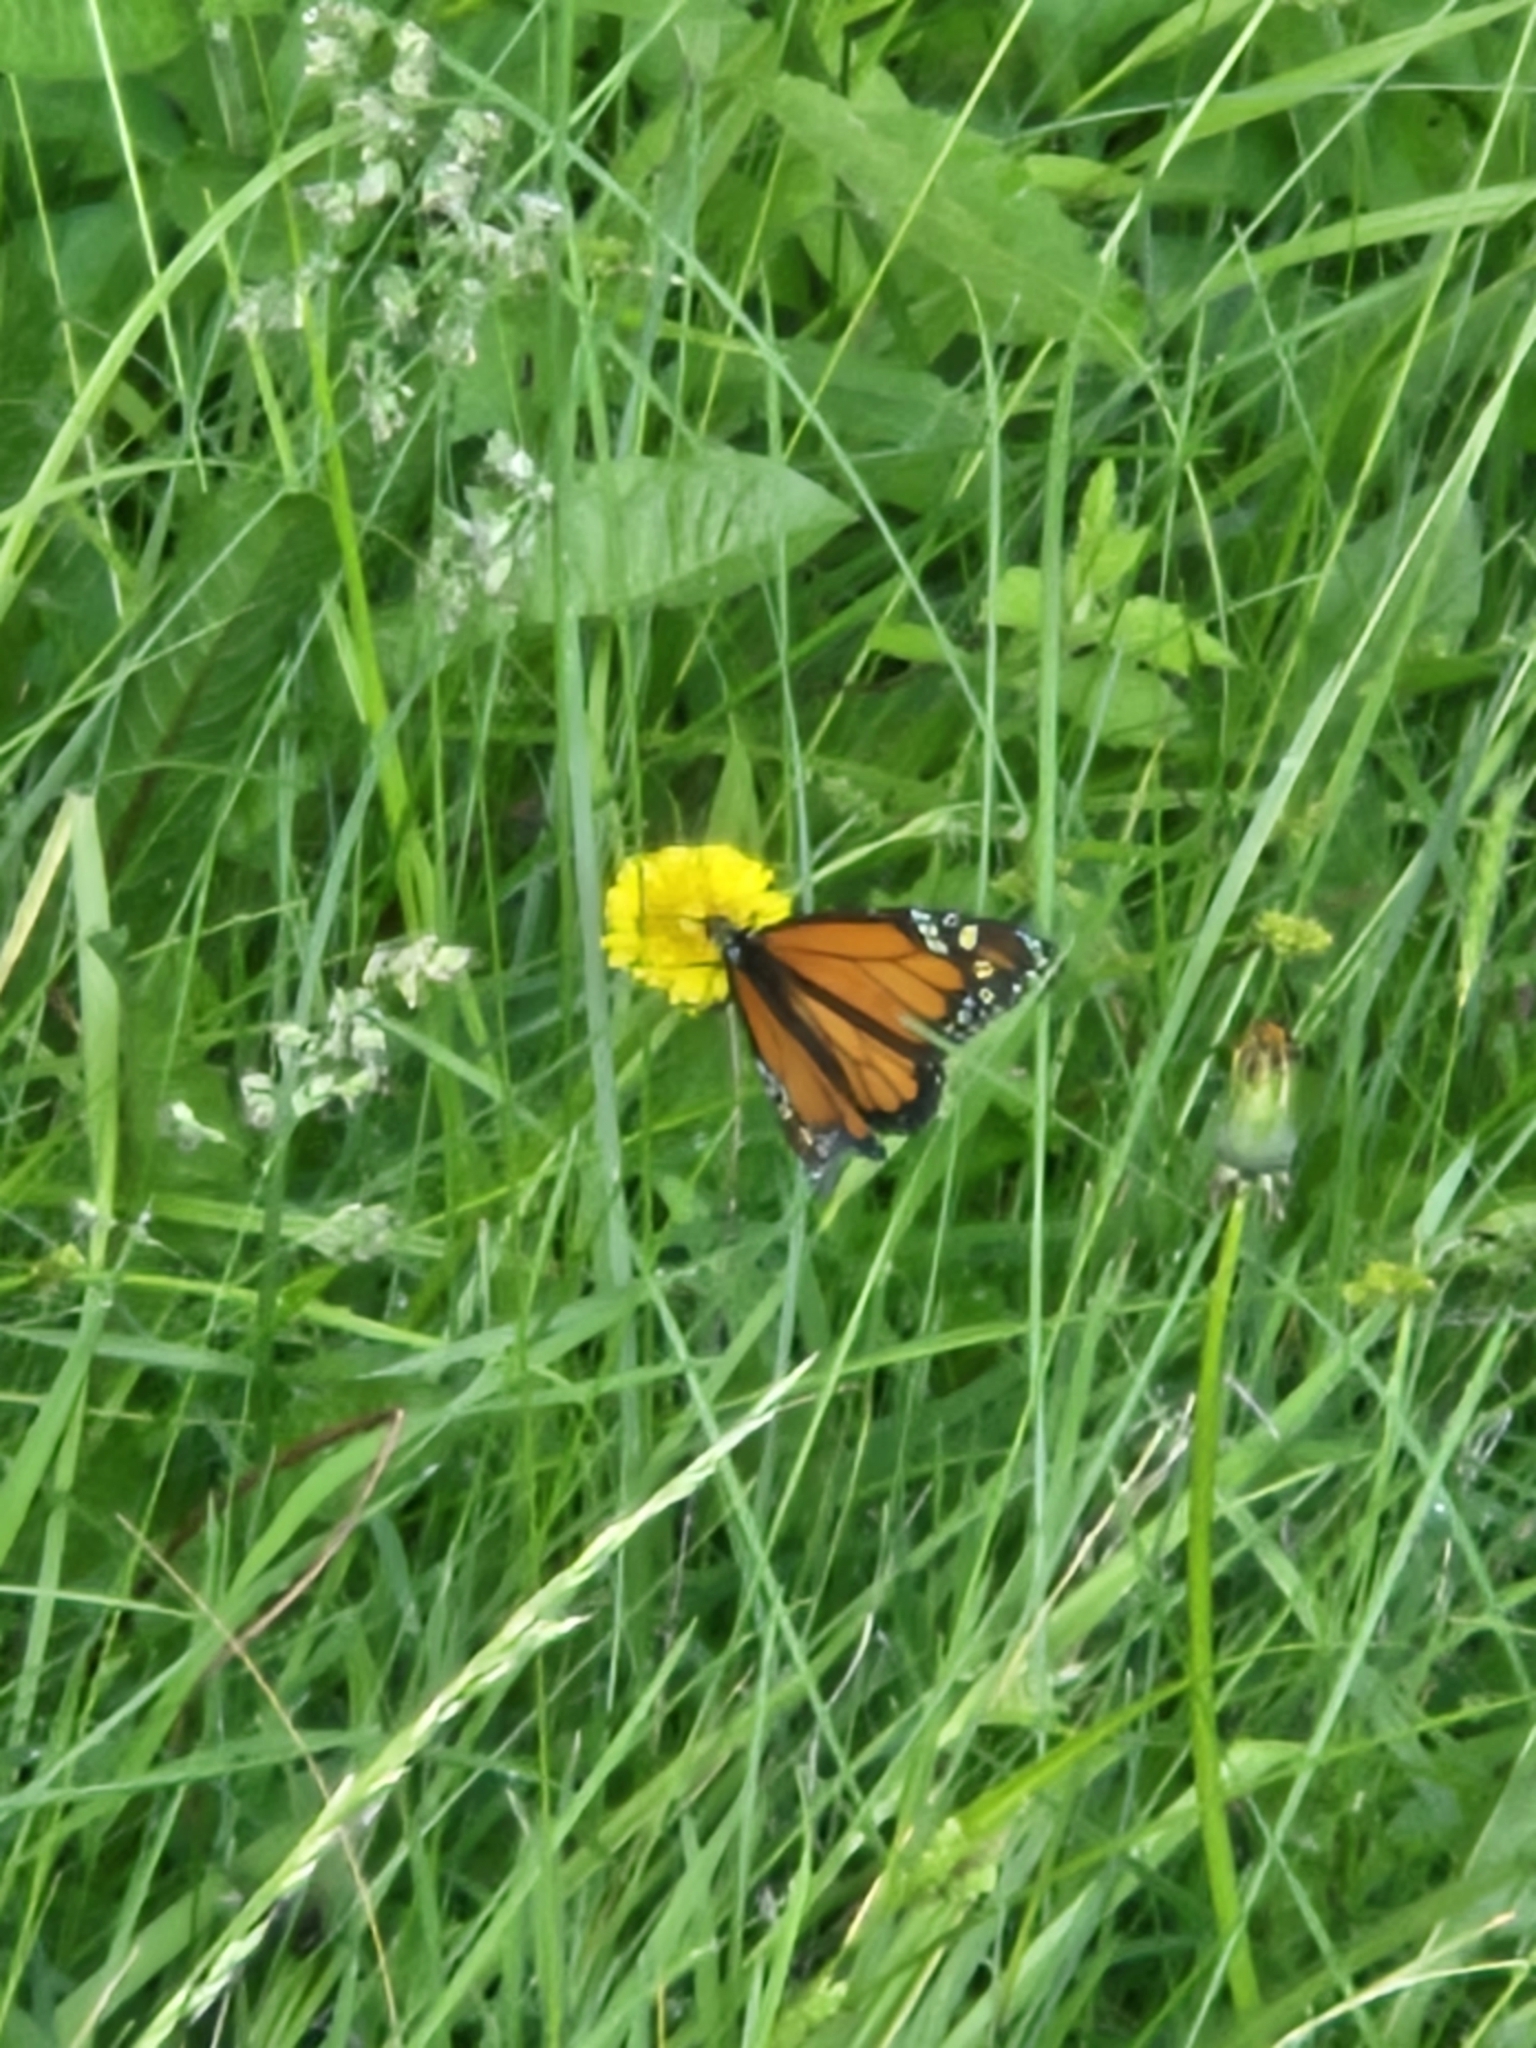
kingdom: Animalia
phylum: Arthropoda
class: Insecta
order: Lepidoptera
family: Nymphalidae
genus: Danaus
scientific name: Danaus plexippus
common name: Monarch
